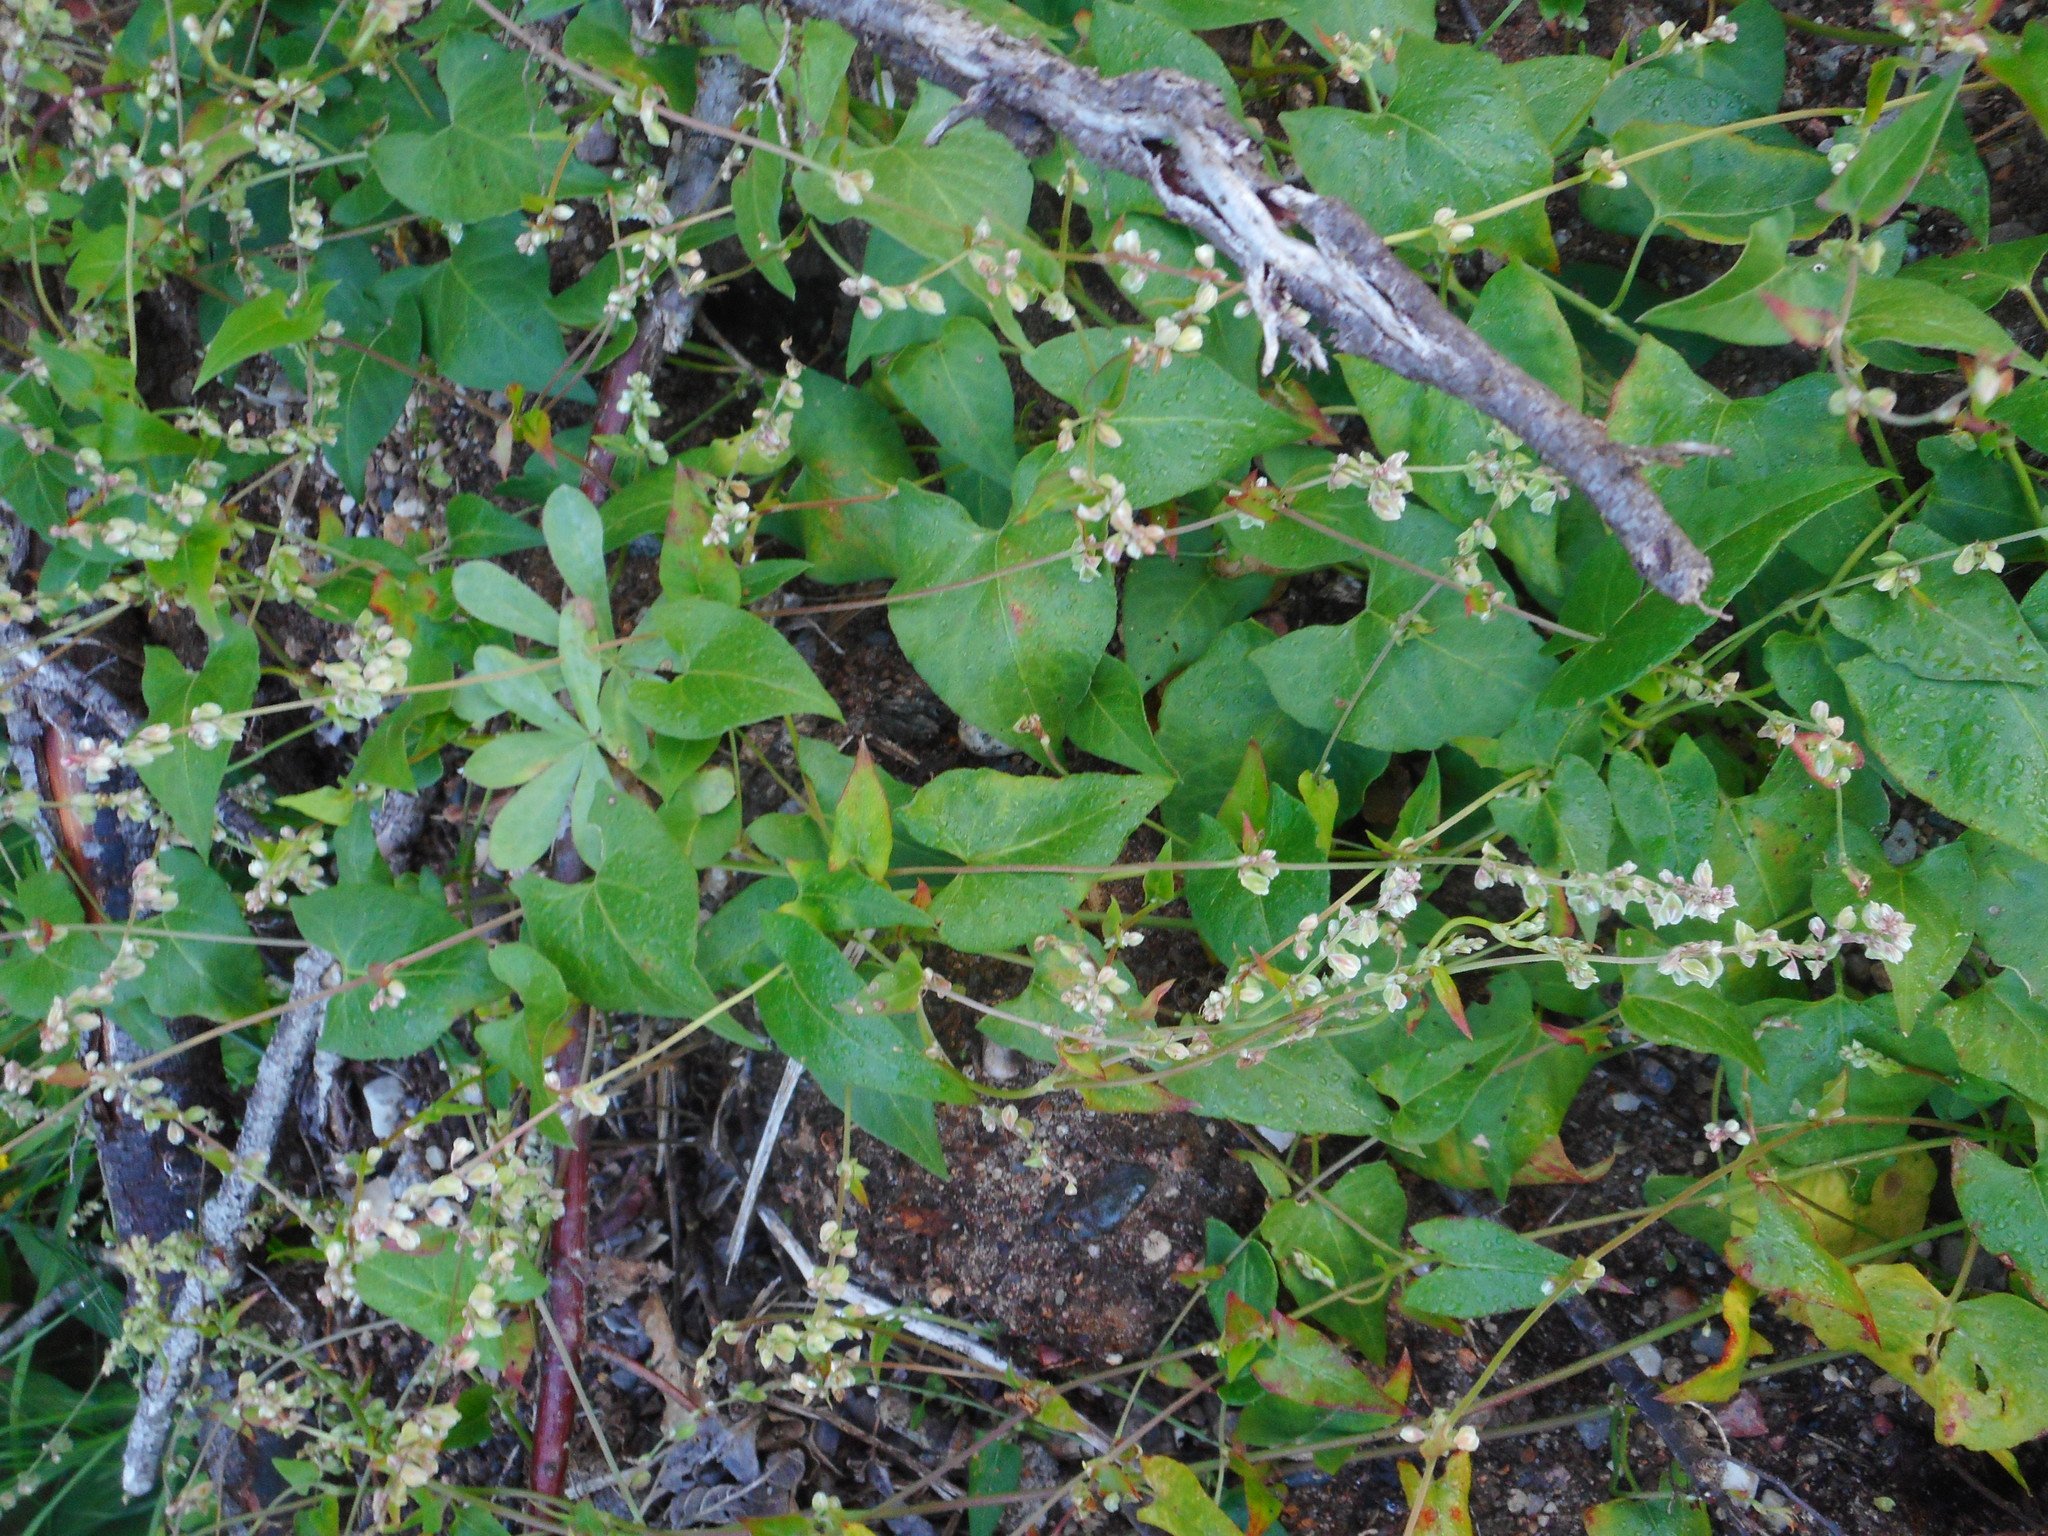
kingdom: Plantae
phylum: Tracheophyta
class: Magnoliopsida
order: Caryophyllales
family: Polygonaceae
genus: Fallopia
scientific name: Fallopia dumetorum
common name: Copse-bindweed
